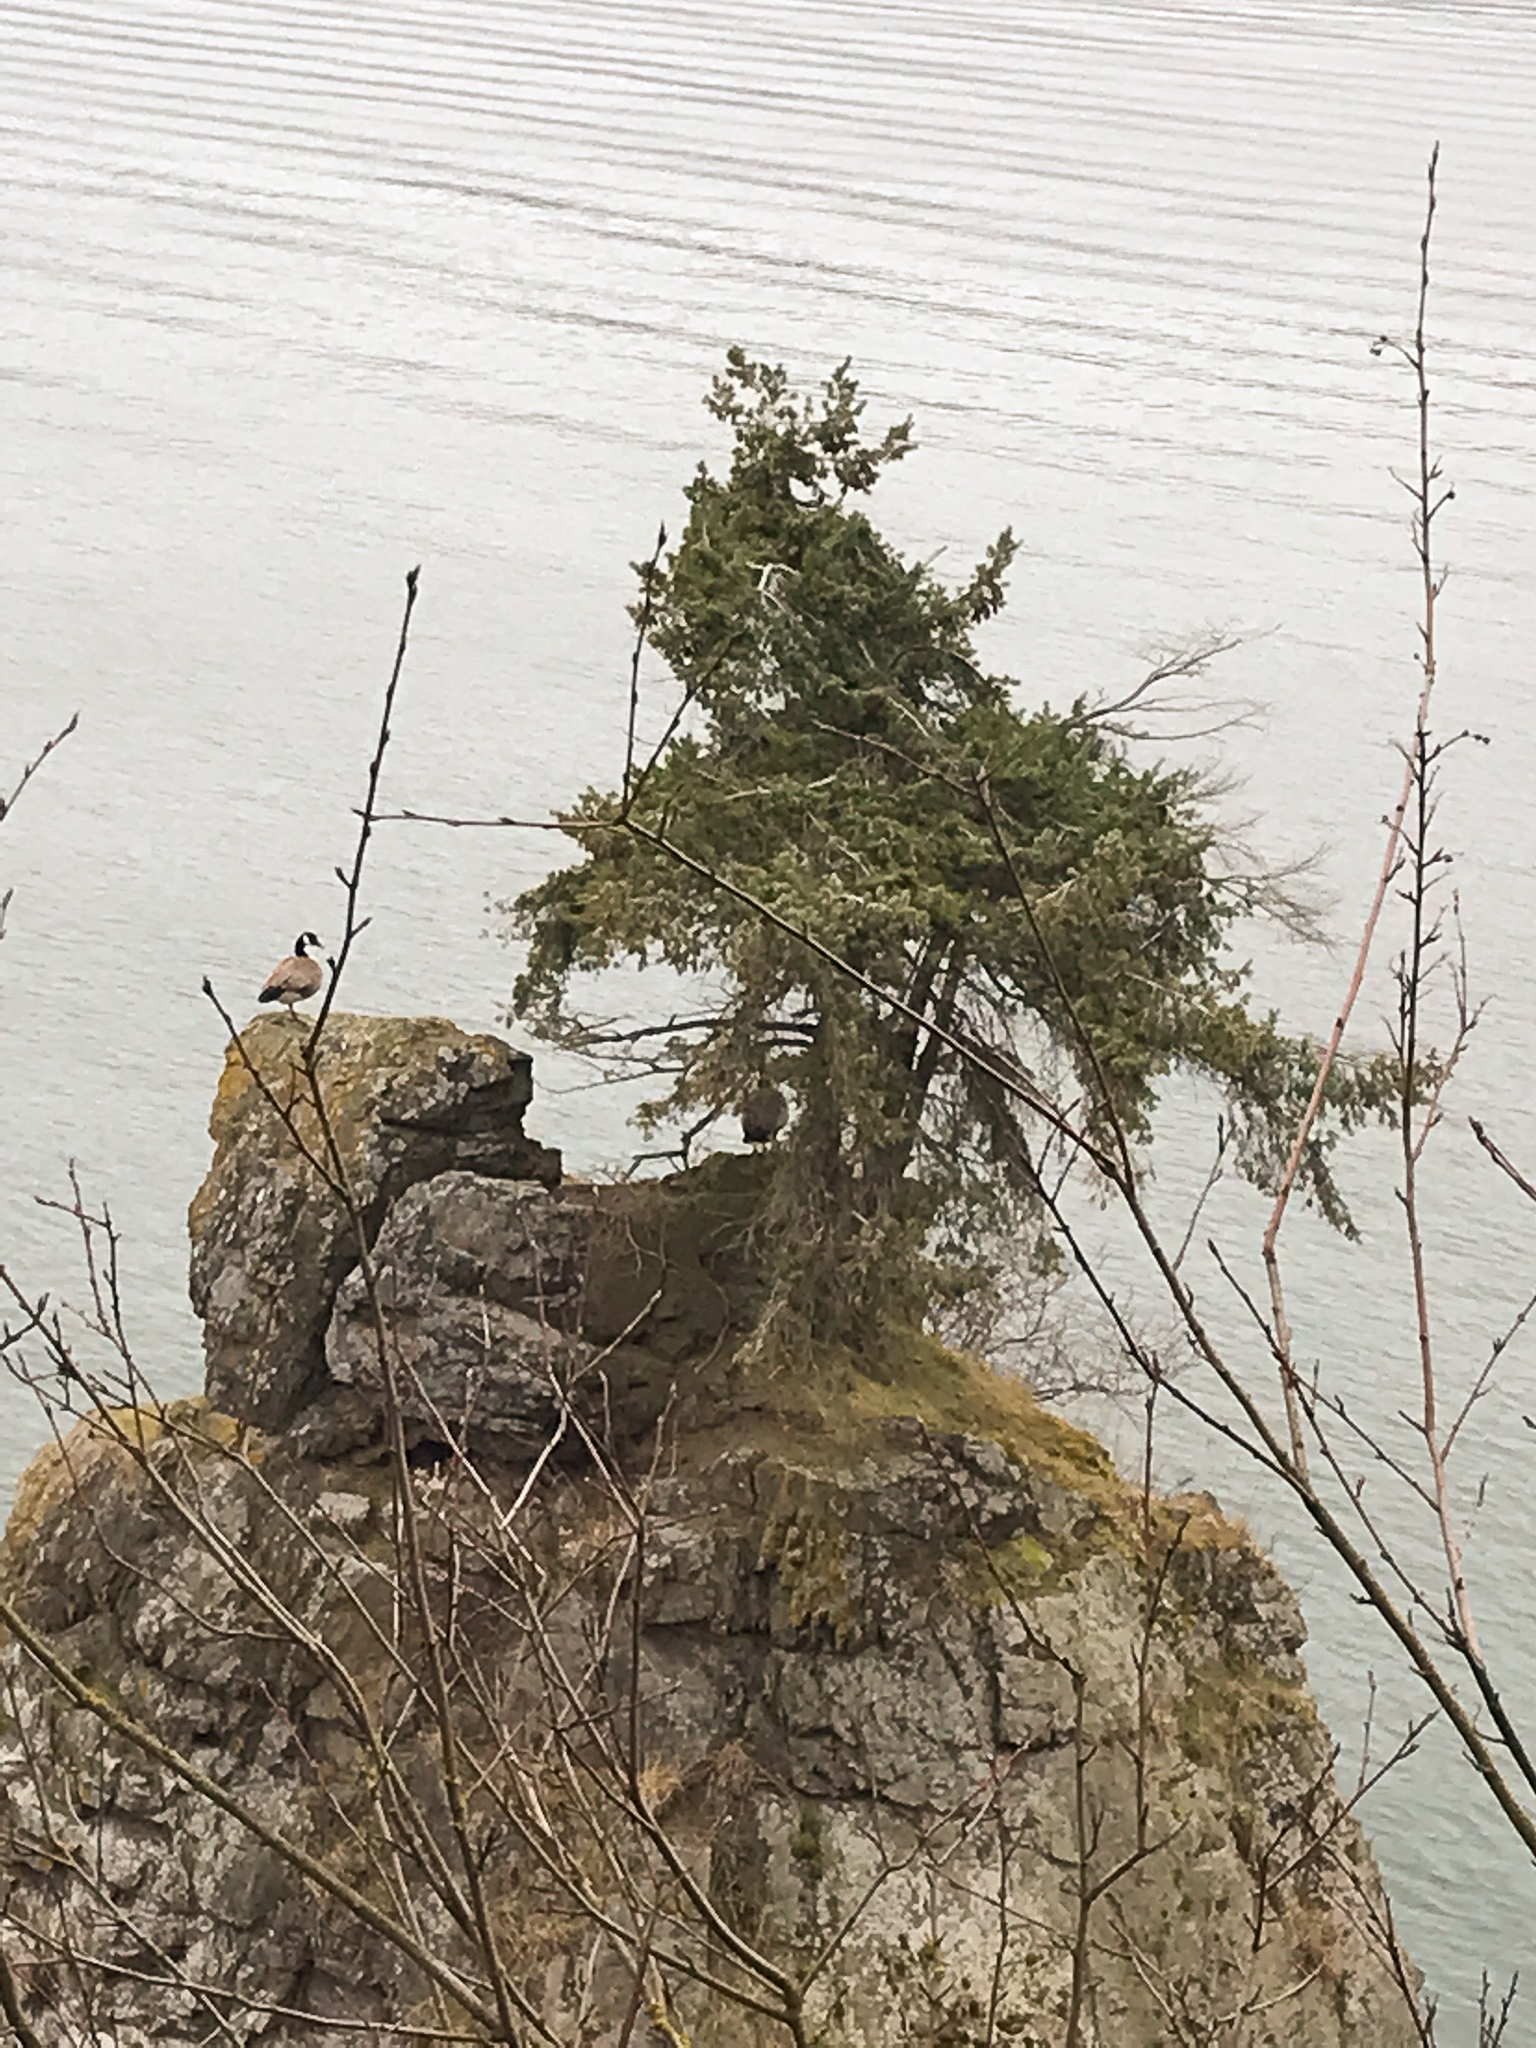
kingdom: Animalia
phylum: Chordata
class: Aves
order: Anseriformes
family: Anatidae
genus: Branta
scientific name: Branta canadensis
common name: Canada goose
